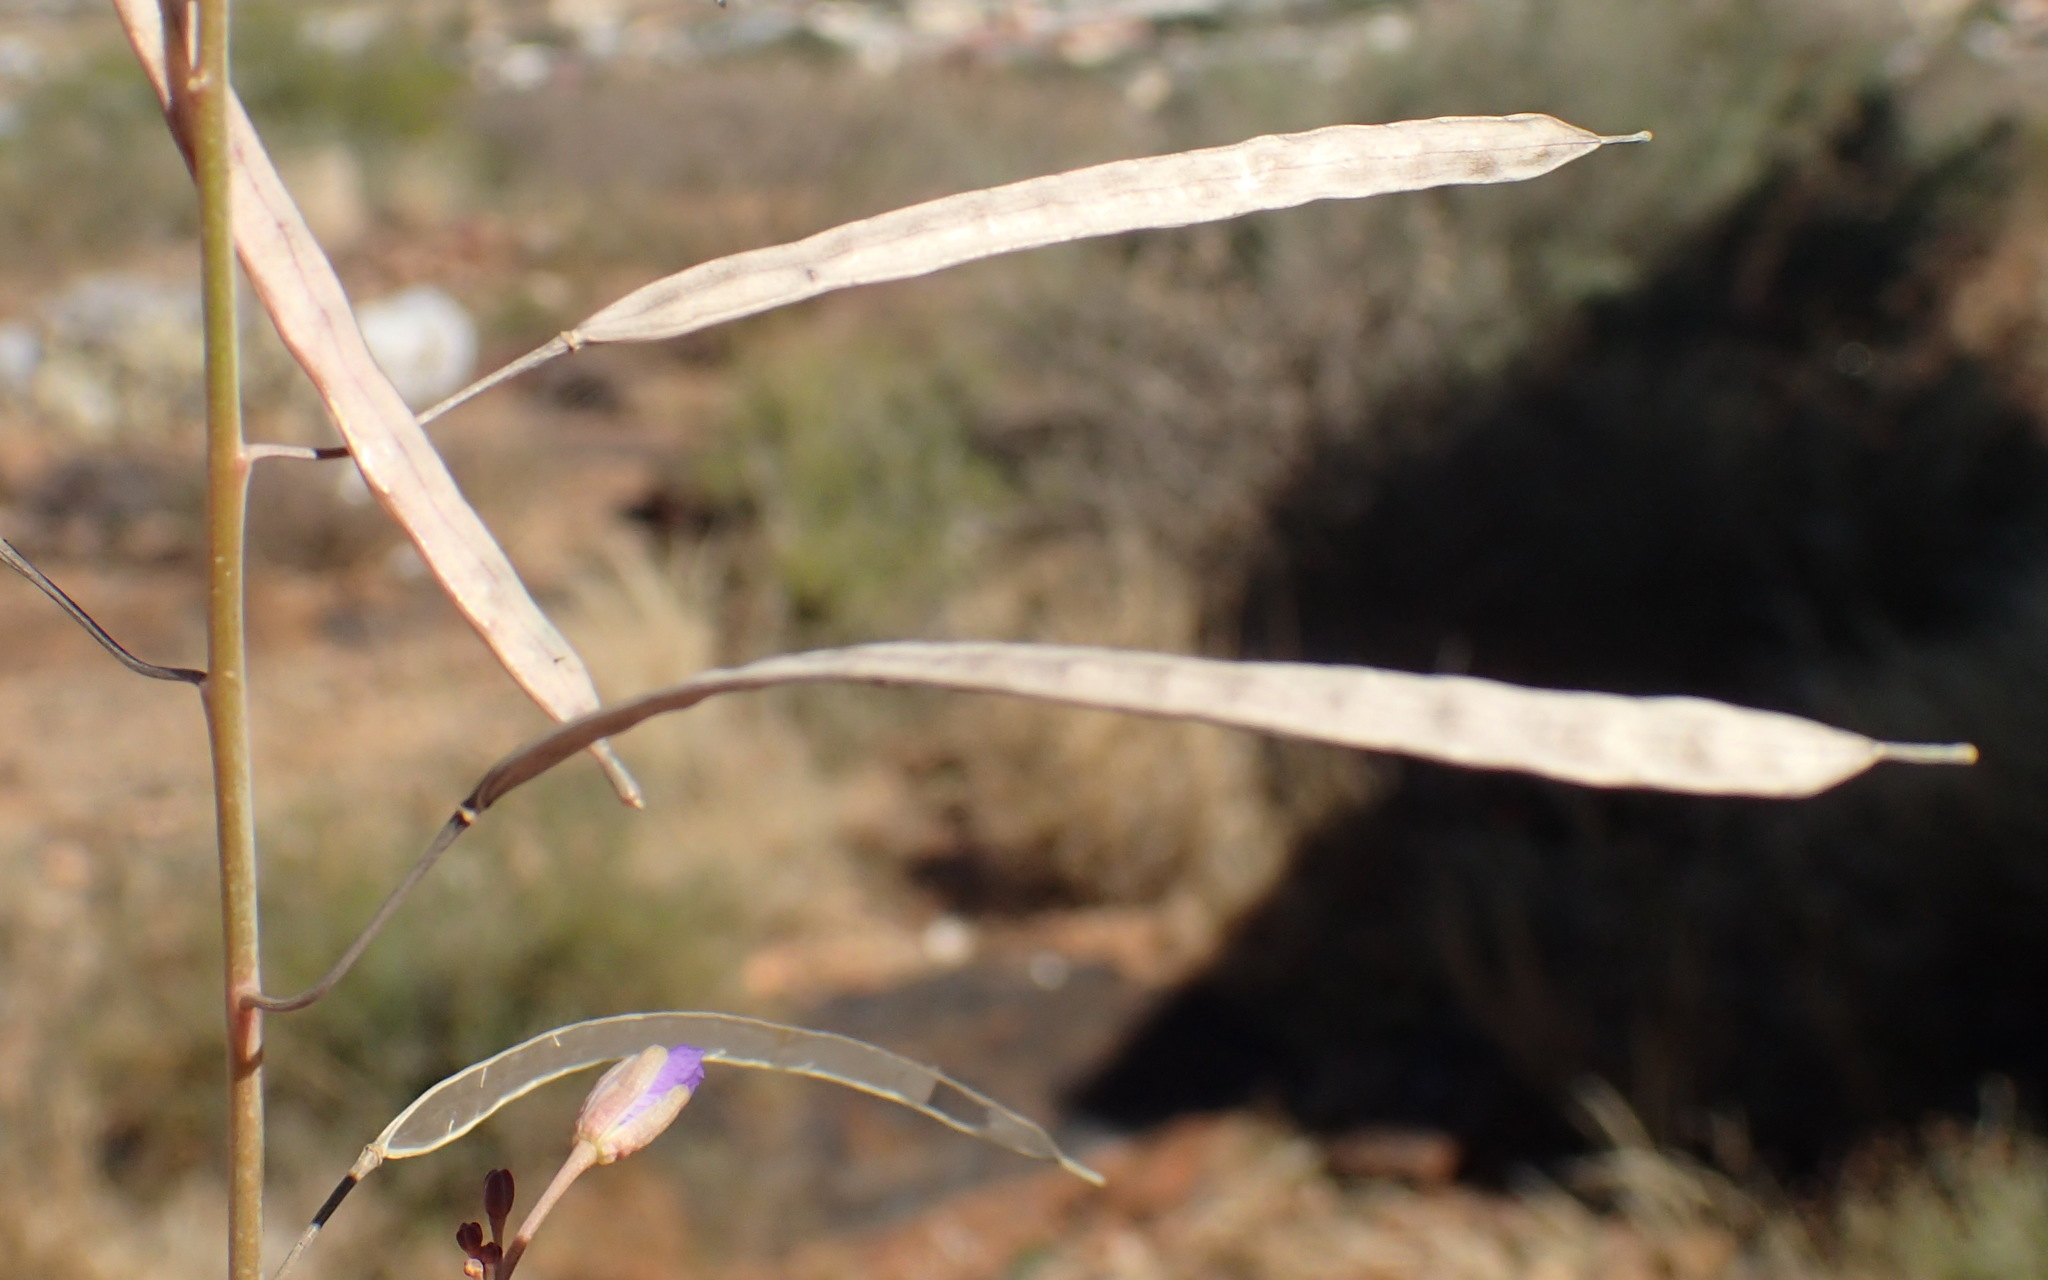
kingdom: Plantae
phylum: Tracheophyta
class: Magnoliopsida
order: Brassicales
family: Brassicaceae
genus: Heliophila
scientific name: Heliophila trifurca
